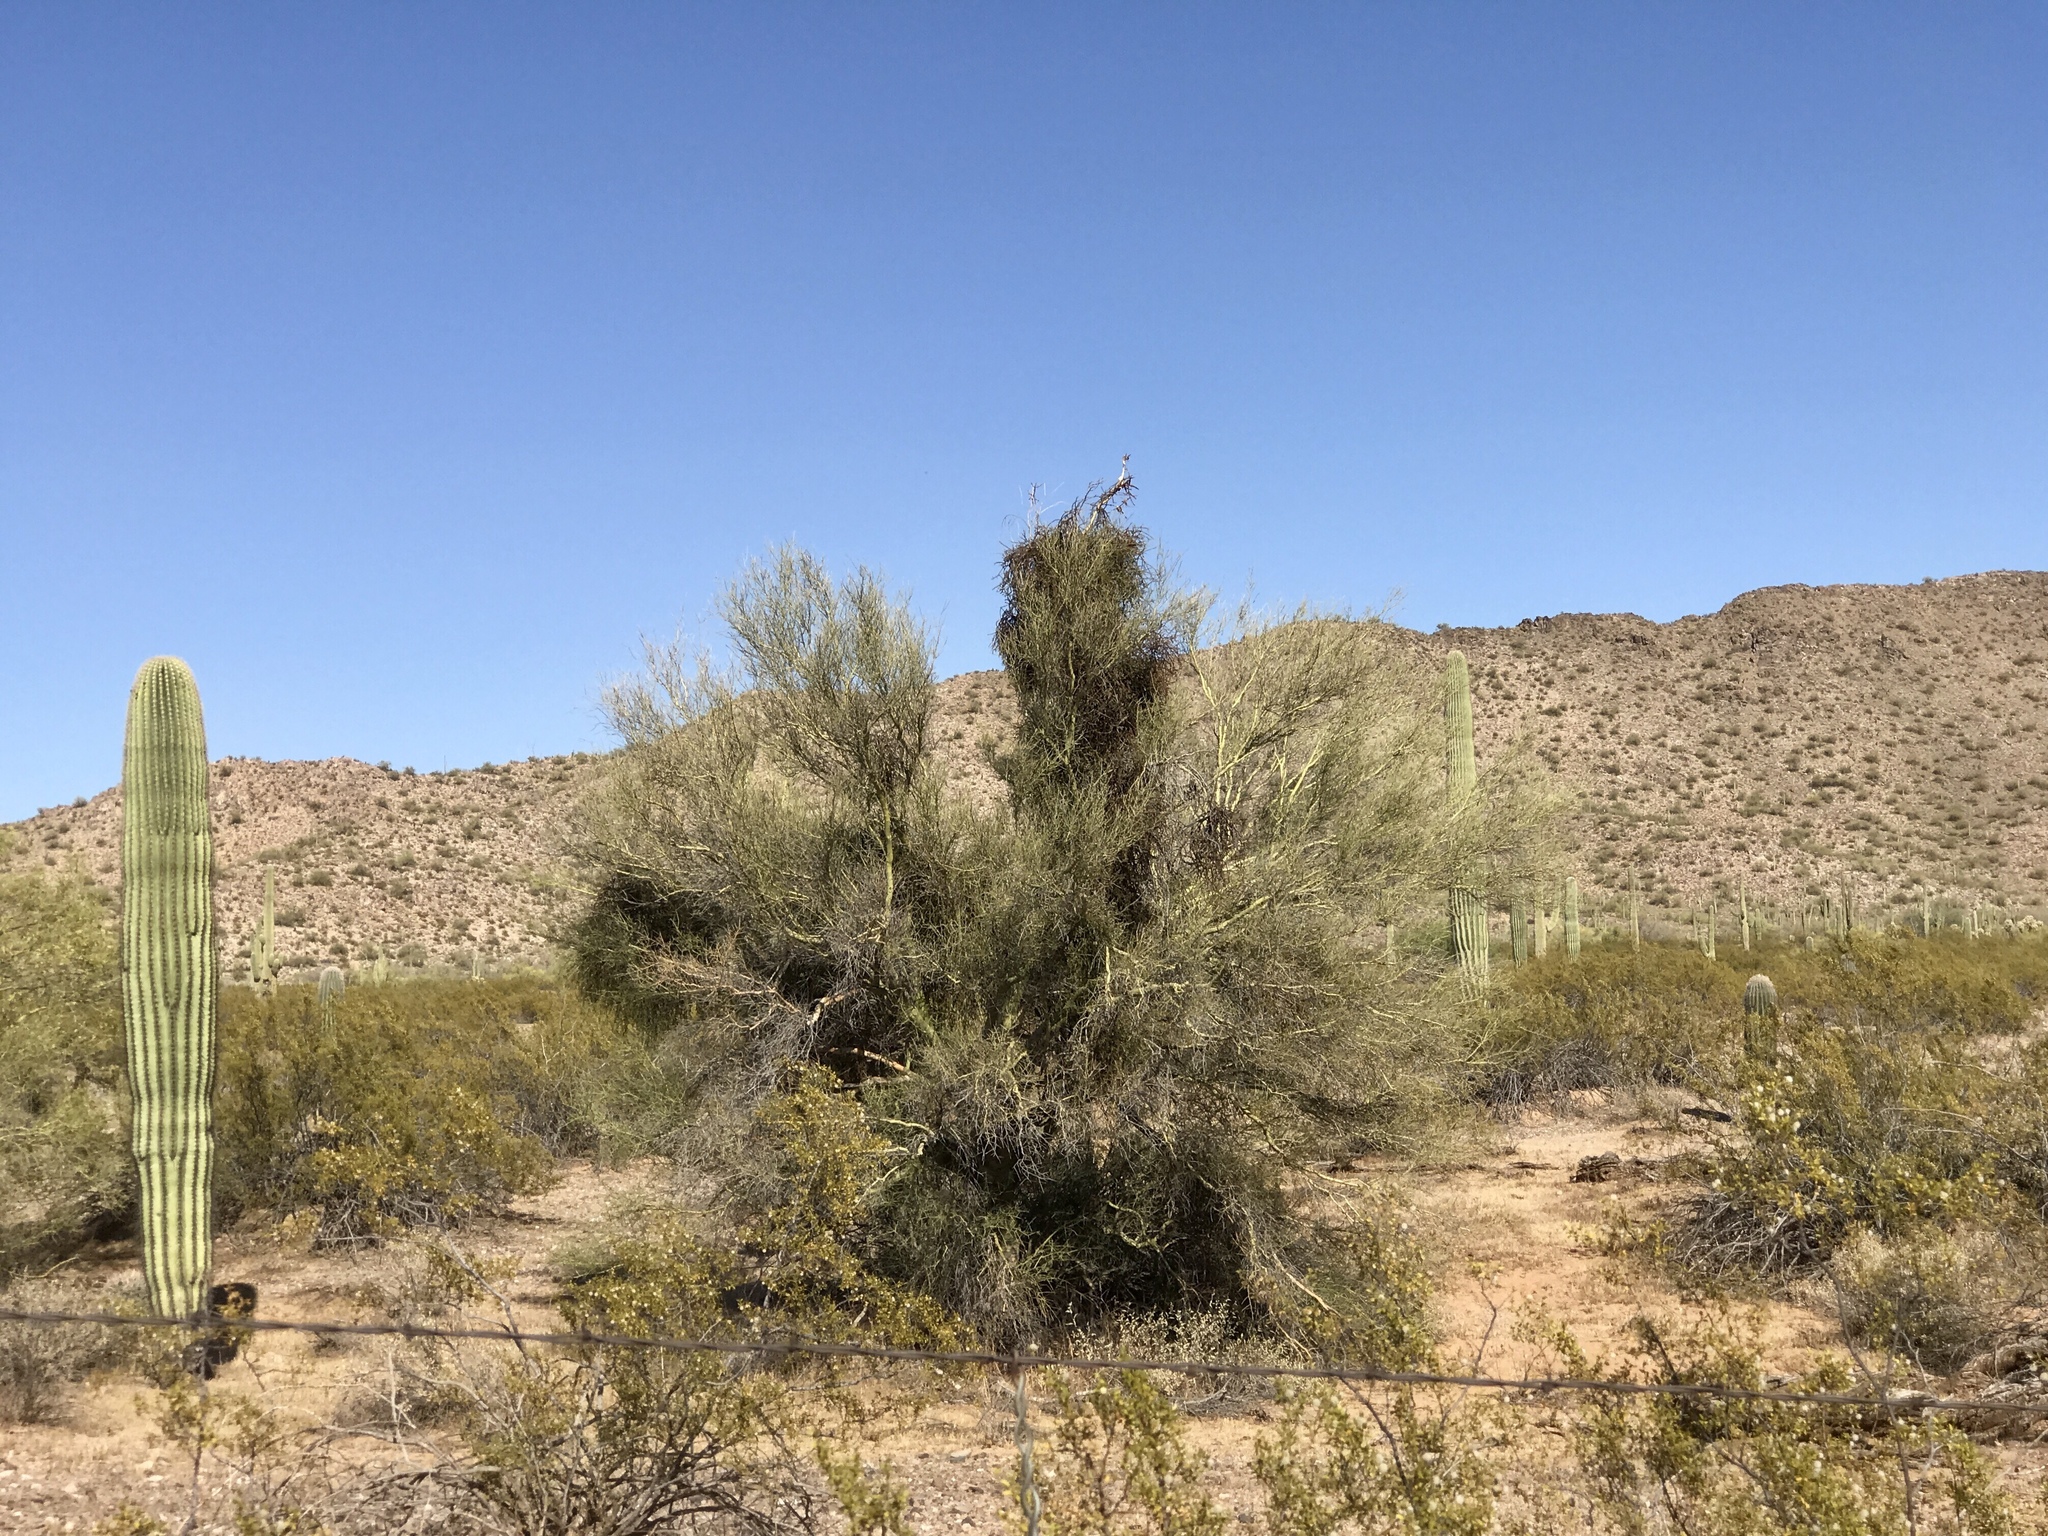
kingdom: Plantae
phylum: Tracheophyta
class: Magnoliopsida
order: Fabales
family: Fabaceae
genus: Parkinsonia
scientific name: Parkinsonia florida
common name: Blue paloverde
